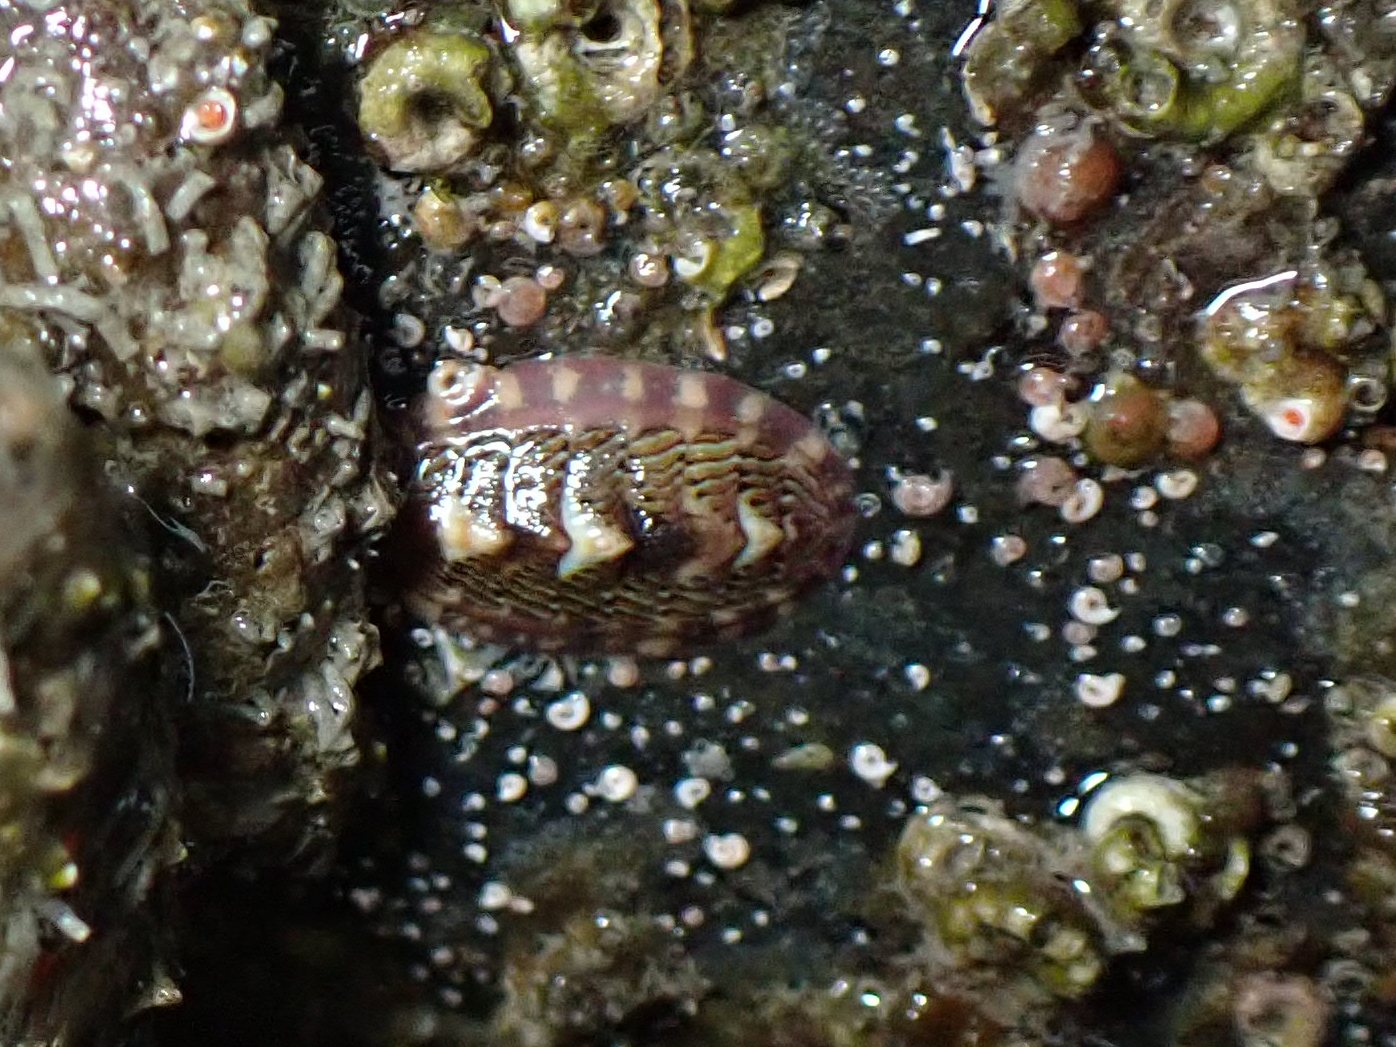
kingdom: Animalia
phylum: Mollusca
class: Polyplacophora
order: Chitonida
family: Tonicellidae
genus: Tonicella
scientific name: Tonicella lineata
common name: Lined chiton
